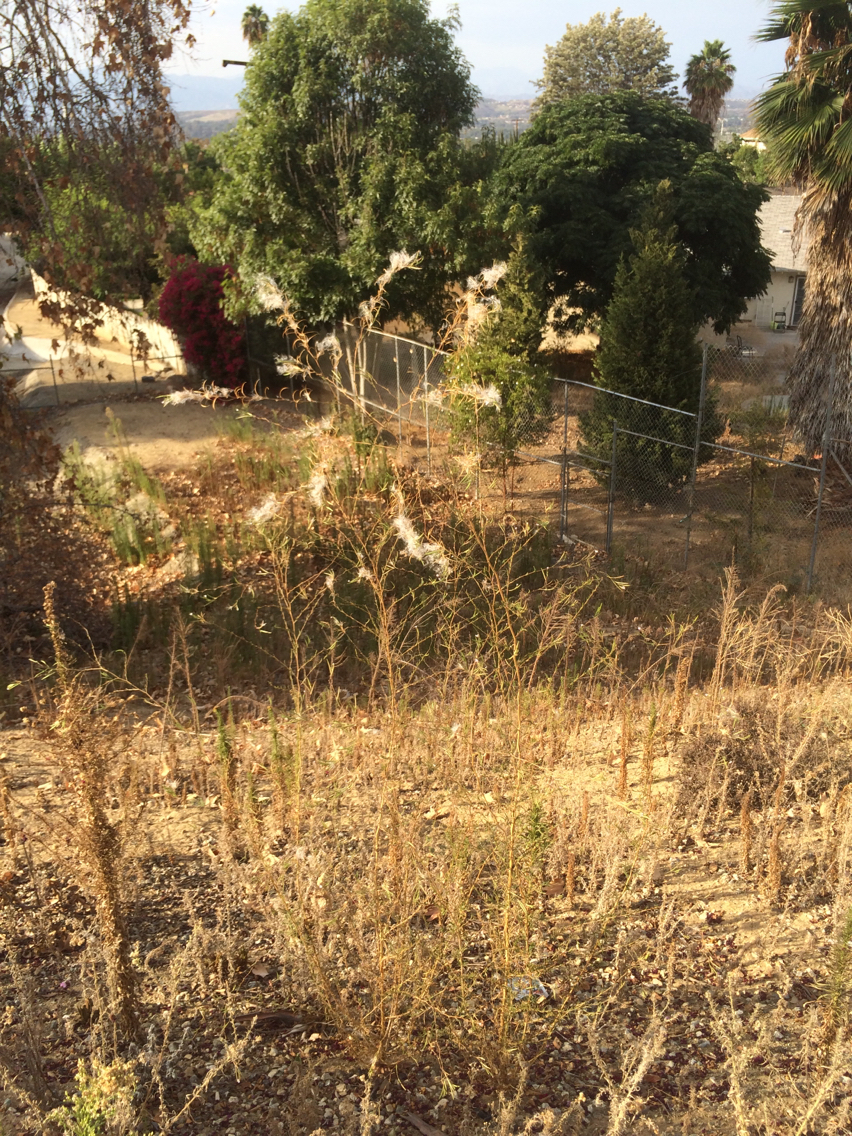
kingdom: Plantae
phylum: Tracheophyta
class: Magnoliopsida
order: Myrtales
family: Onagraceae
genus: Epilobium
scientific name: Epilobium brachycarpum
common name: Annual willowherb
